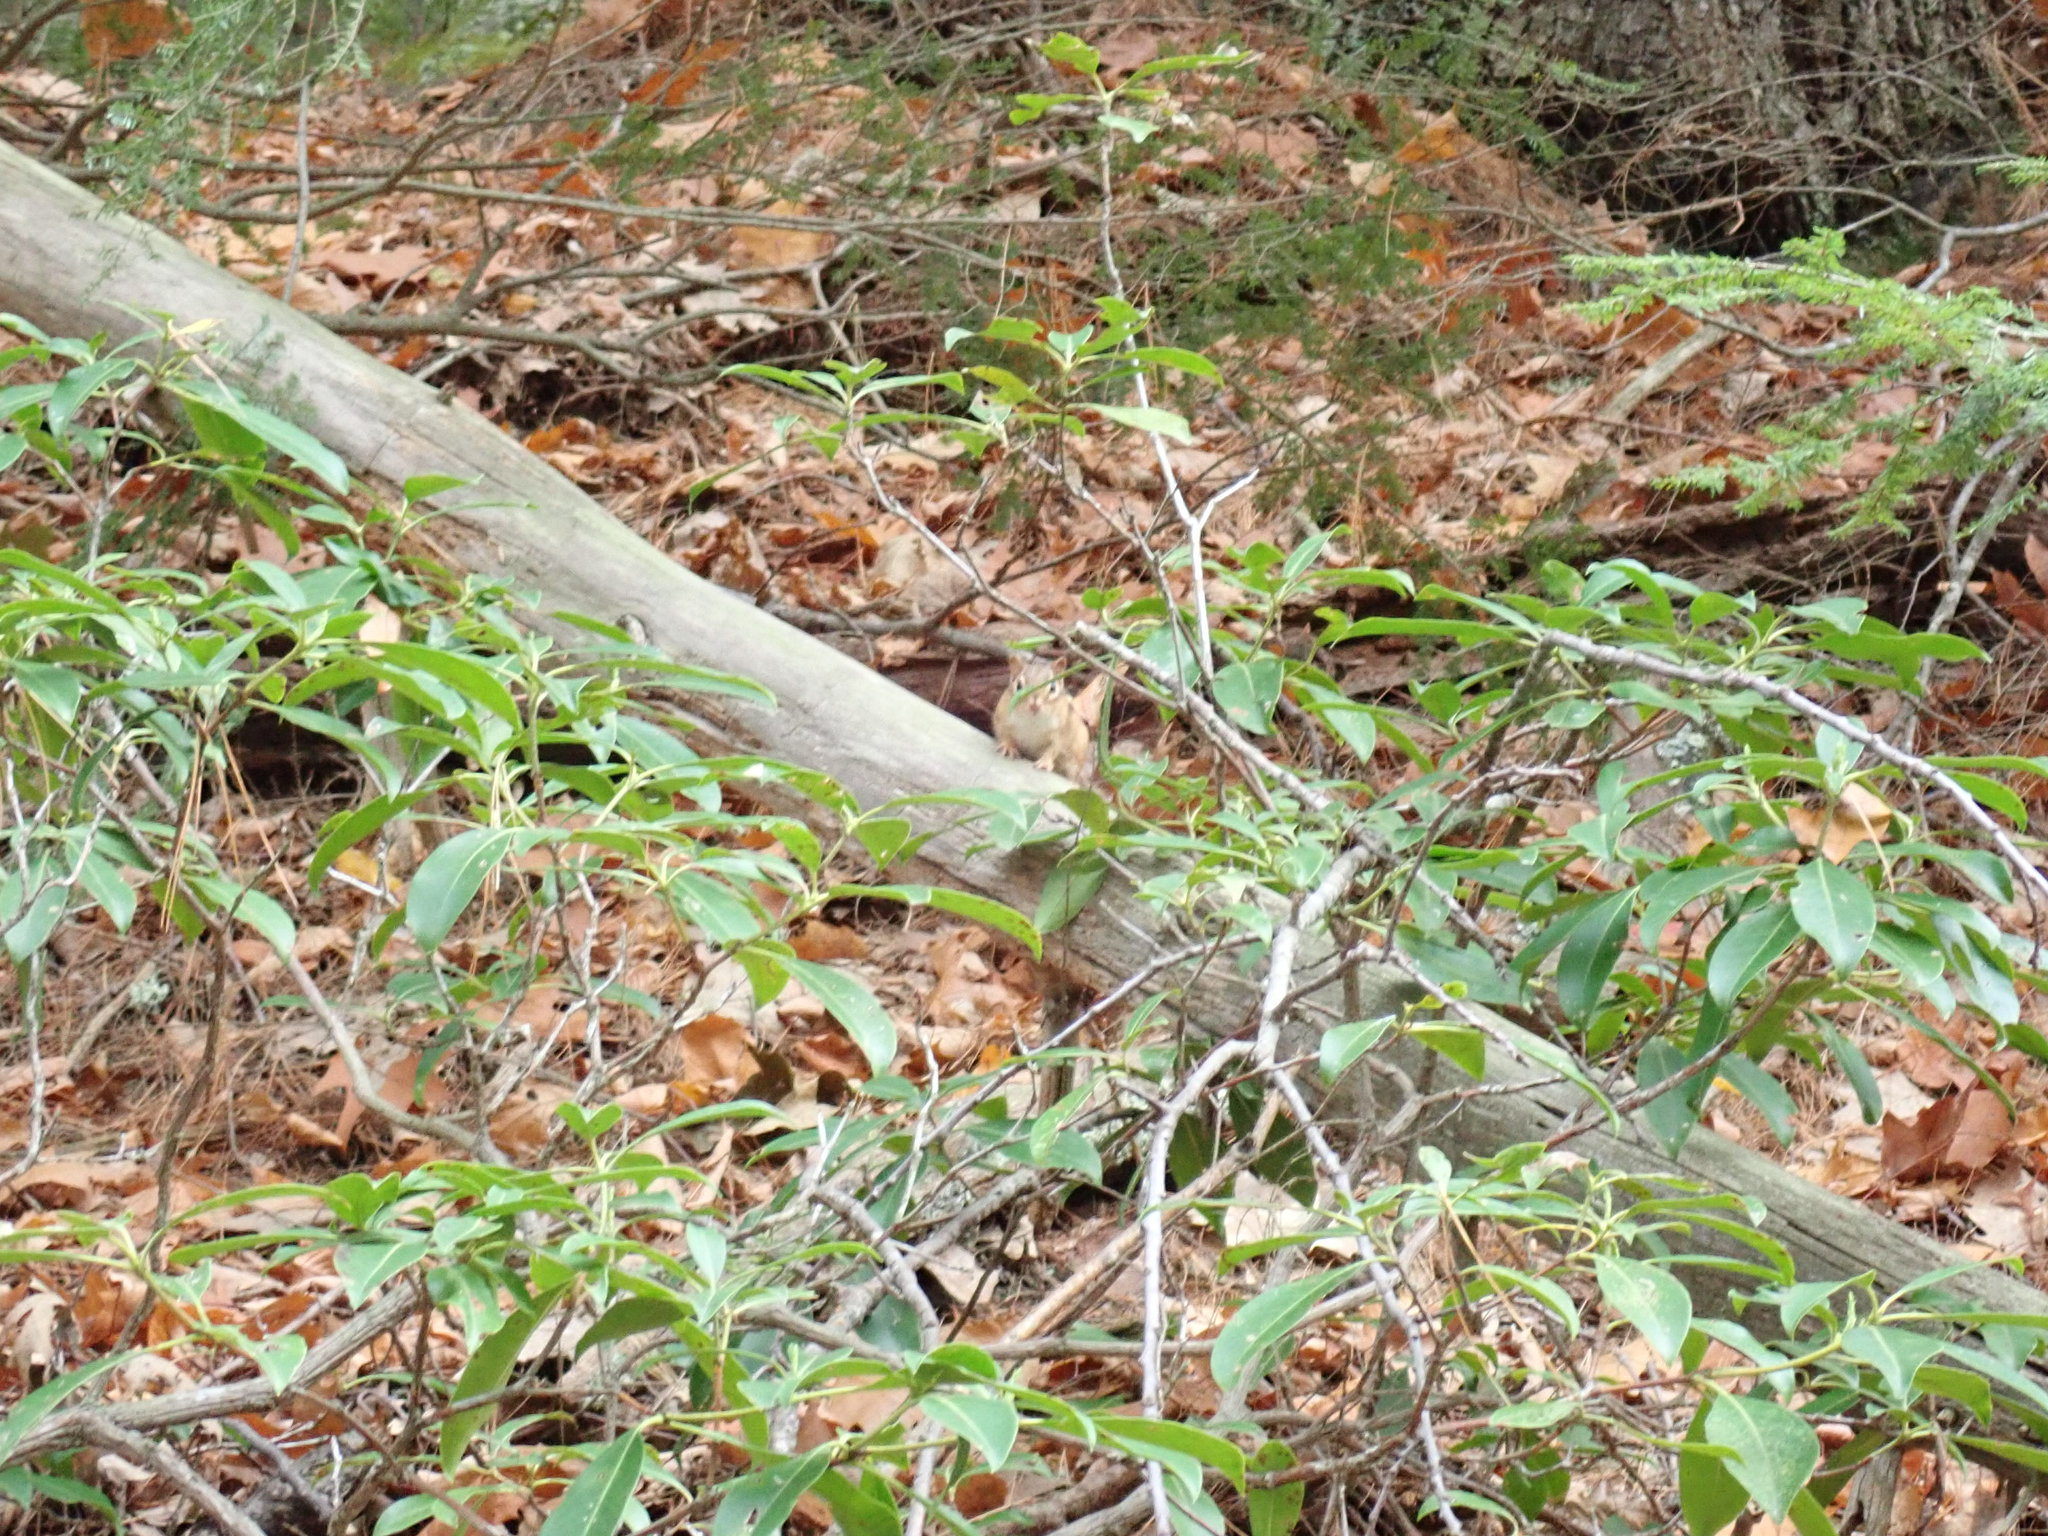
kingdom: Animalia
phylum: Chordata
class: Mammalia
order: Rodentia
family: Sciuridae
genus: Tamias
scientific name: Tamias striatus
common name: Eastern chipmunk
